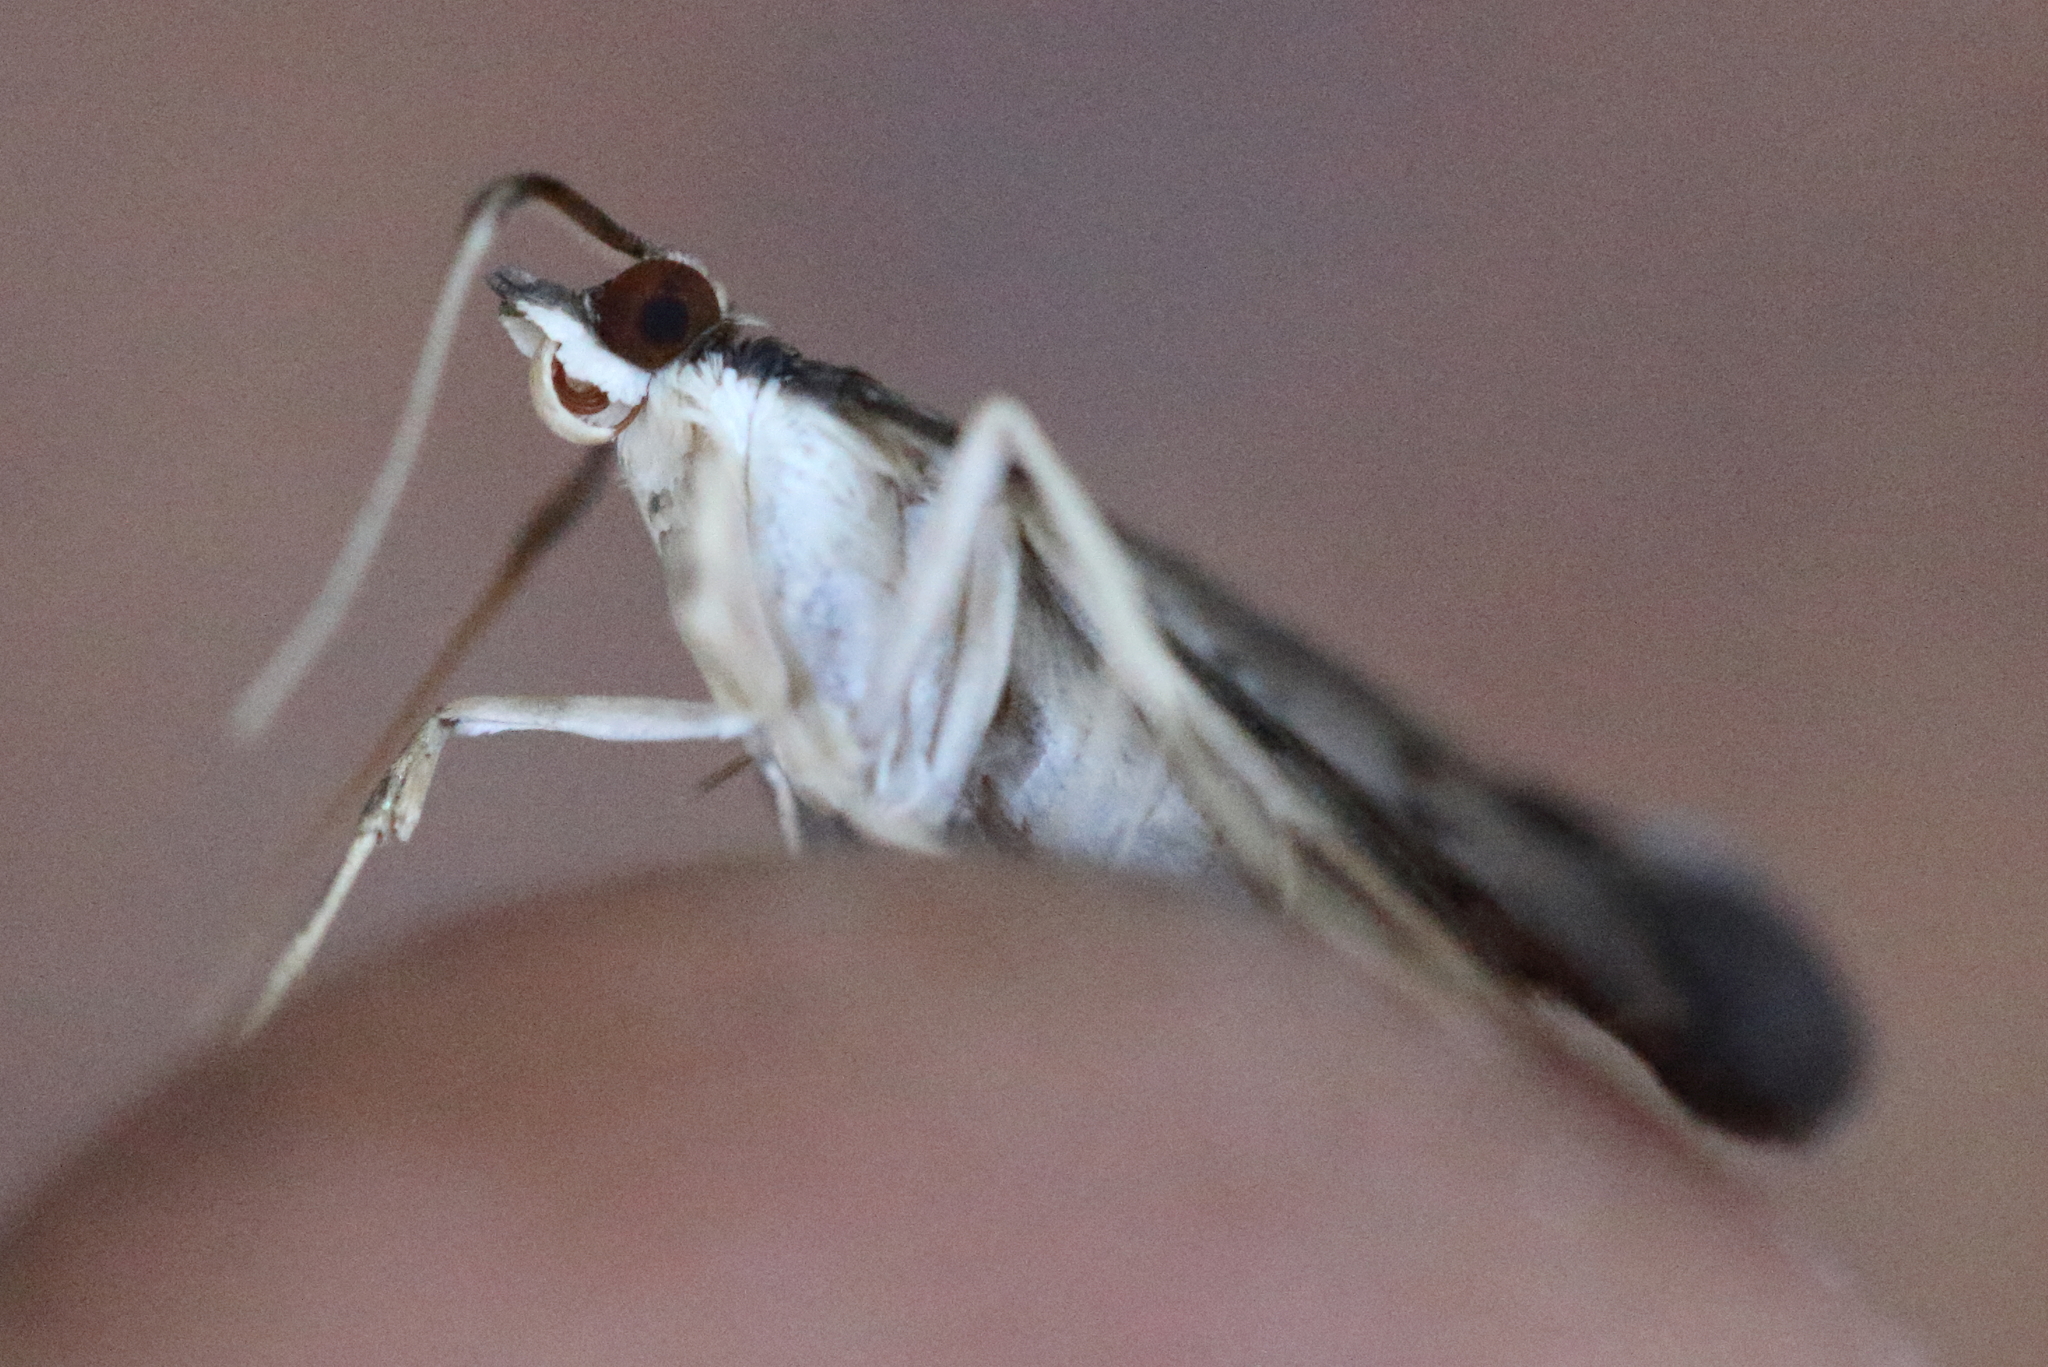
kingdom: Animalia
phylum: Arthropoda
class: Insecta
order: Lepidoptera
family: Crambidae
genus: Piletocera
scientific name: Piletocera macroperalis
